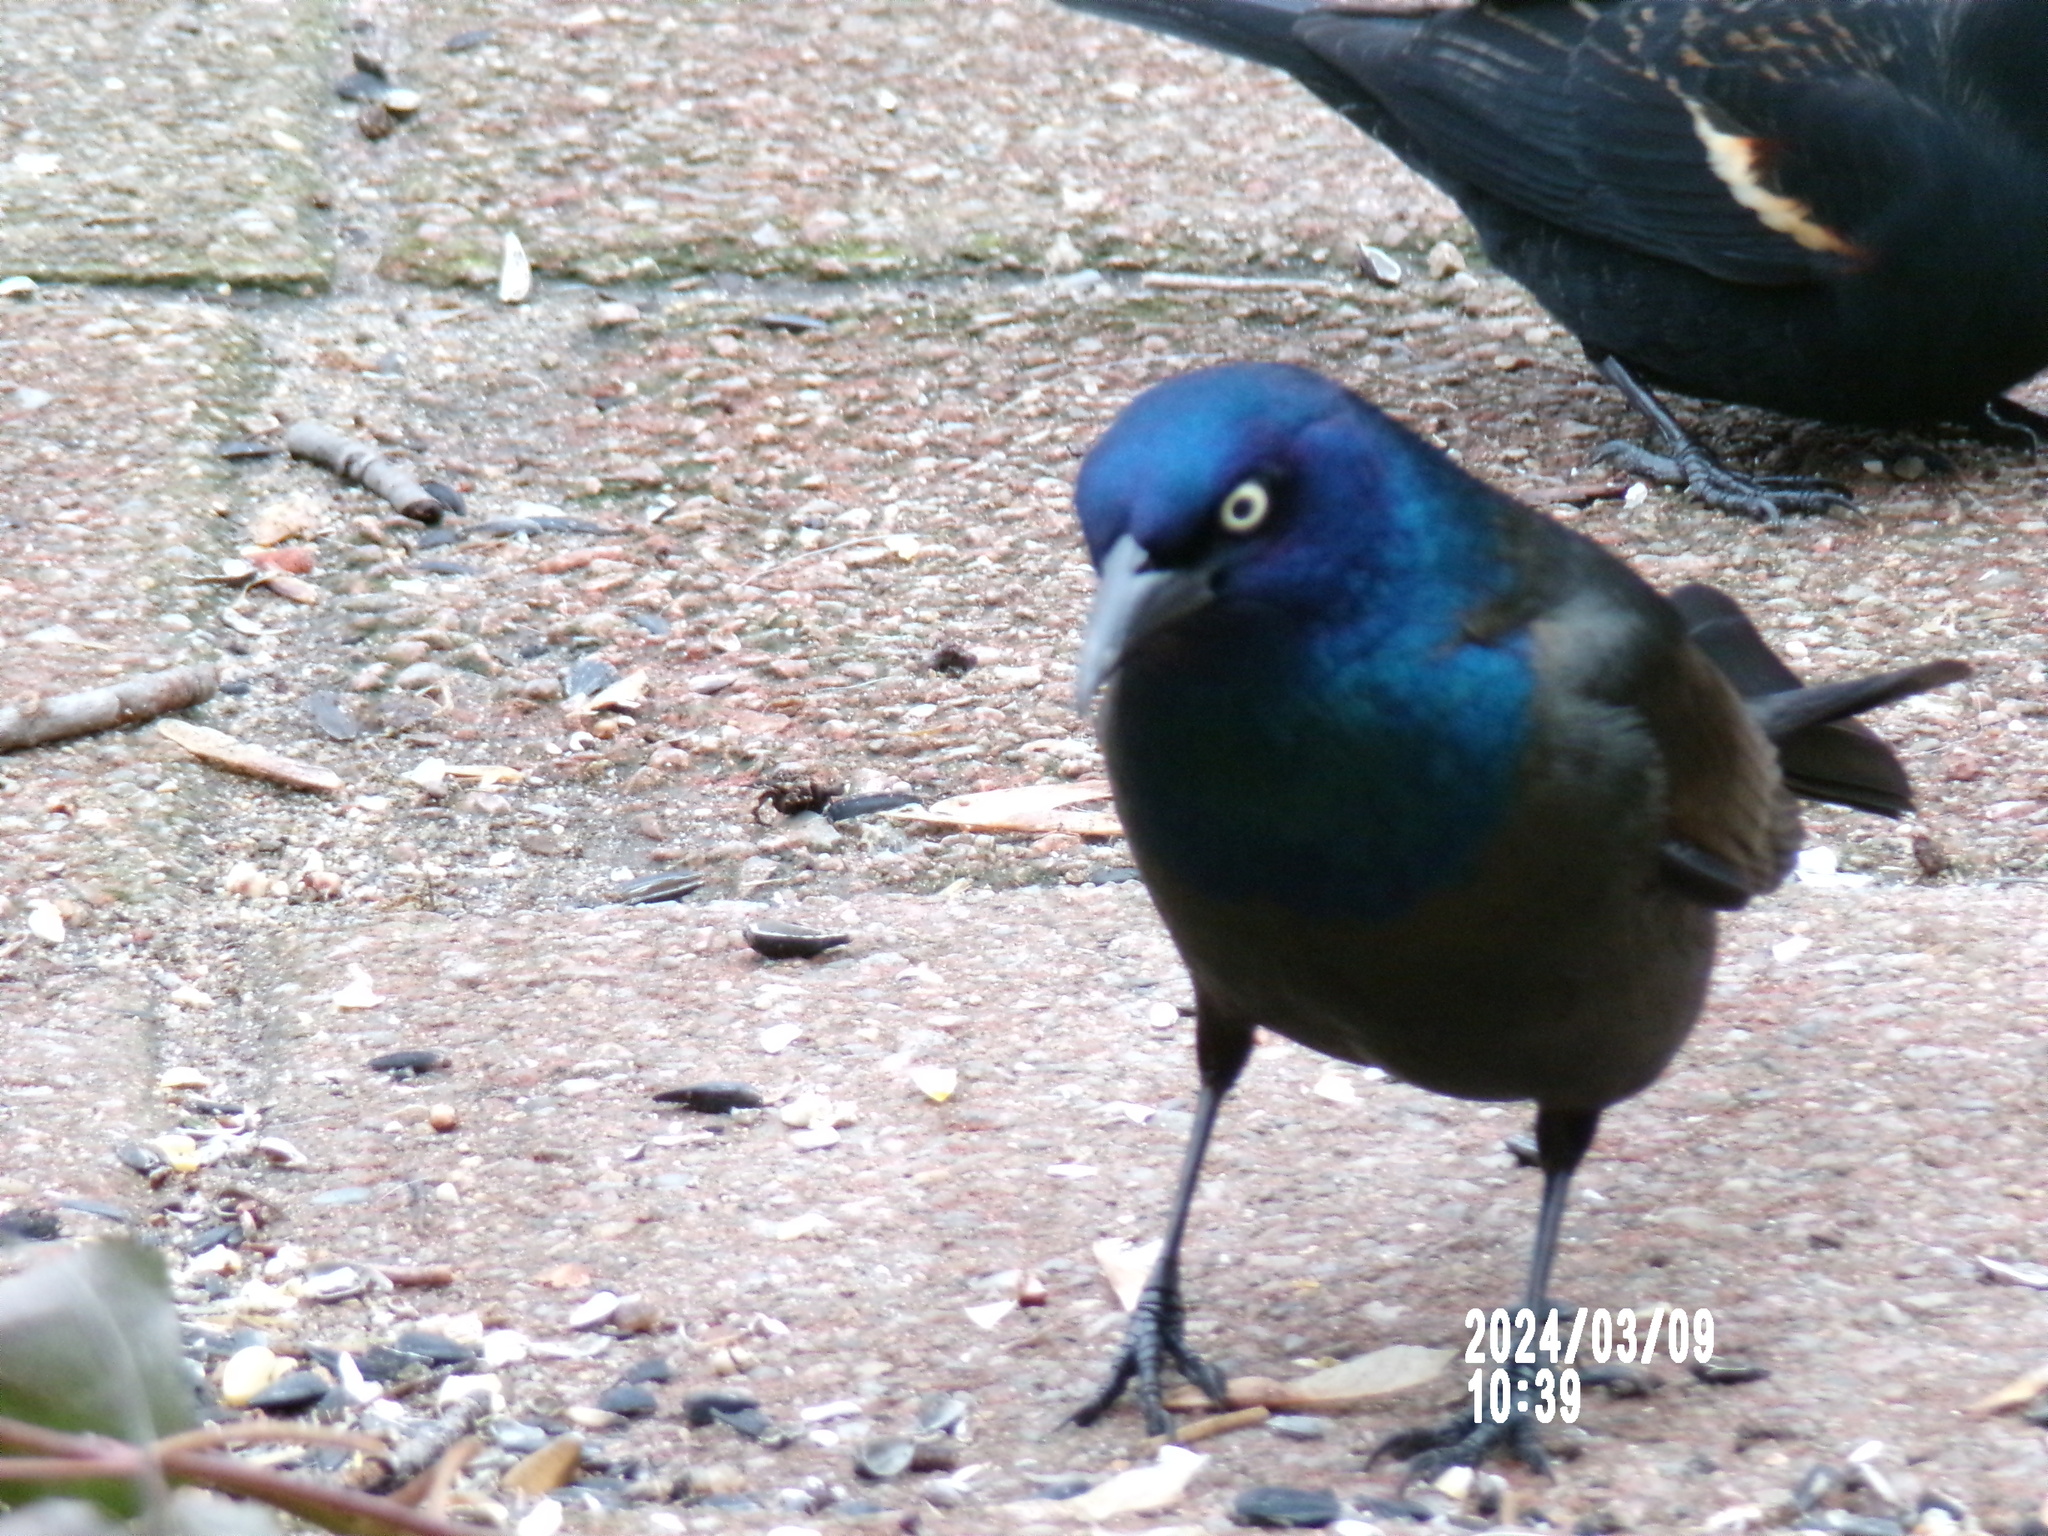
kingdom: Animalia
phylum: Chordata
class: Aves
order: Passeriformes
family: Icteridae
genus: Quiscalus
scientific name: Quiscalus quiscula
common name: Common grackle
